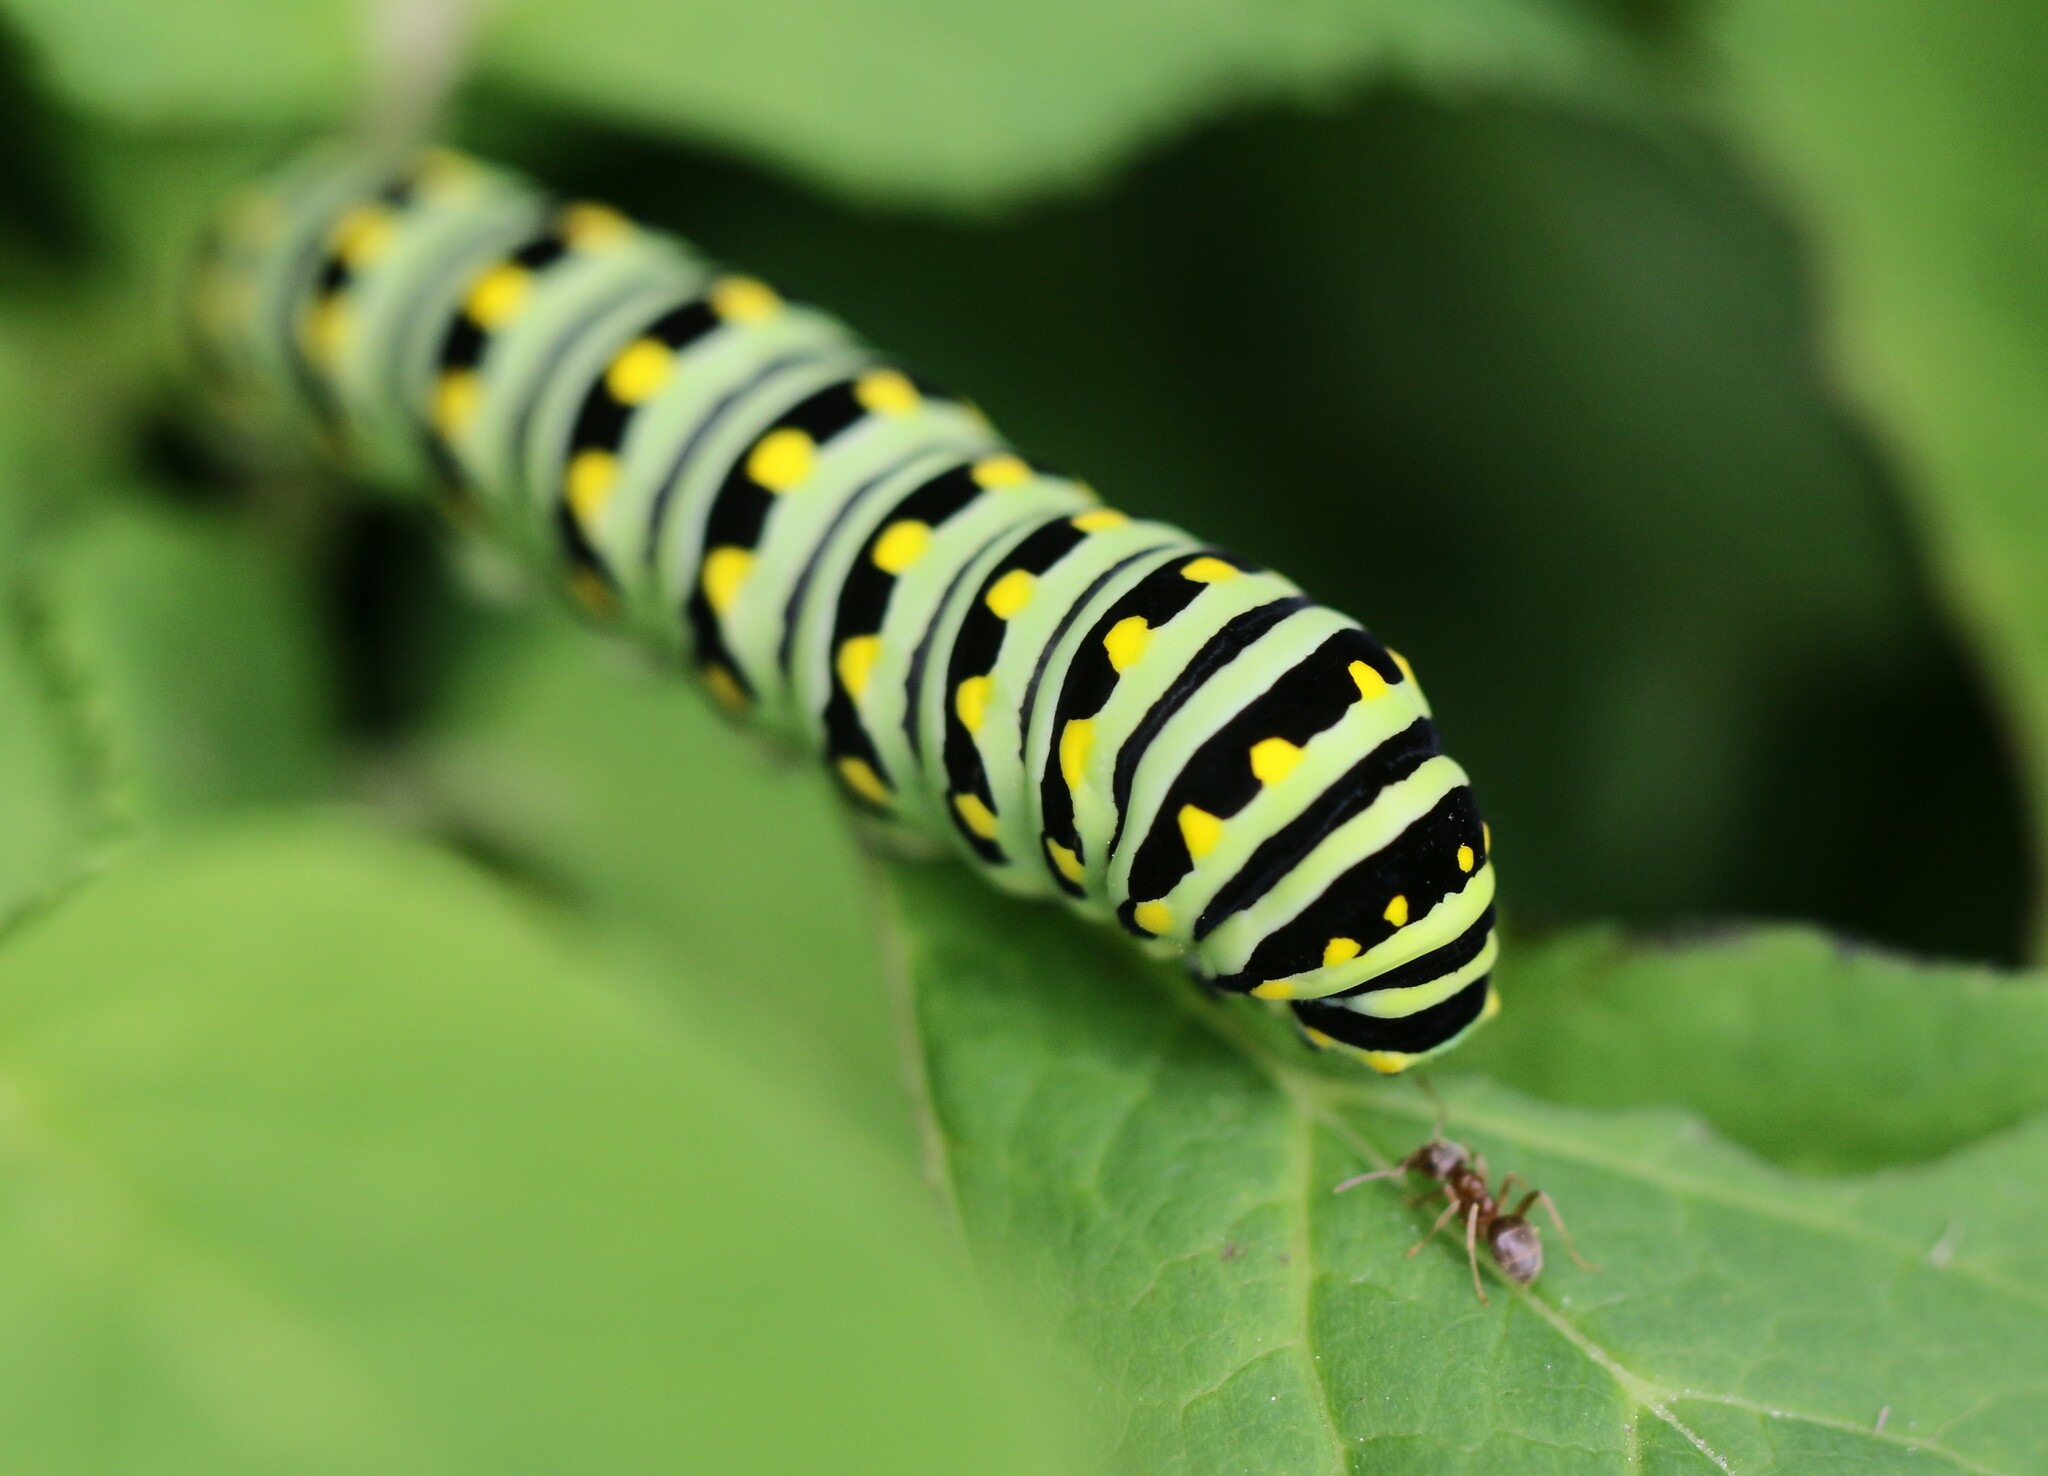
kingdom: Animalia
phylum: Arthropoda
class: Insecta
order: Lepidoptera
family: Papilionidae
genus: Papilio
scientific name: Papilio polyxenes
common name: Black swallowtail
